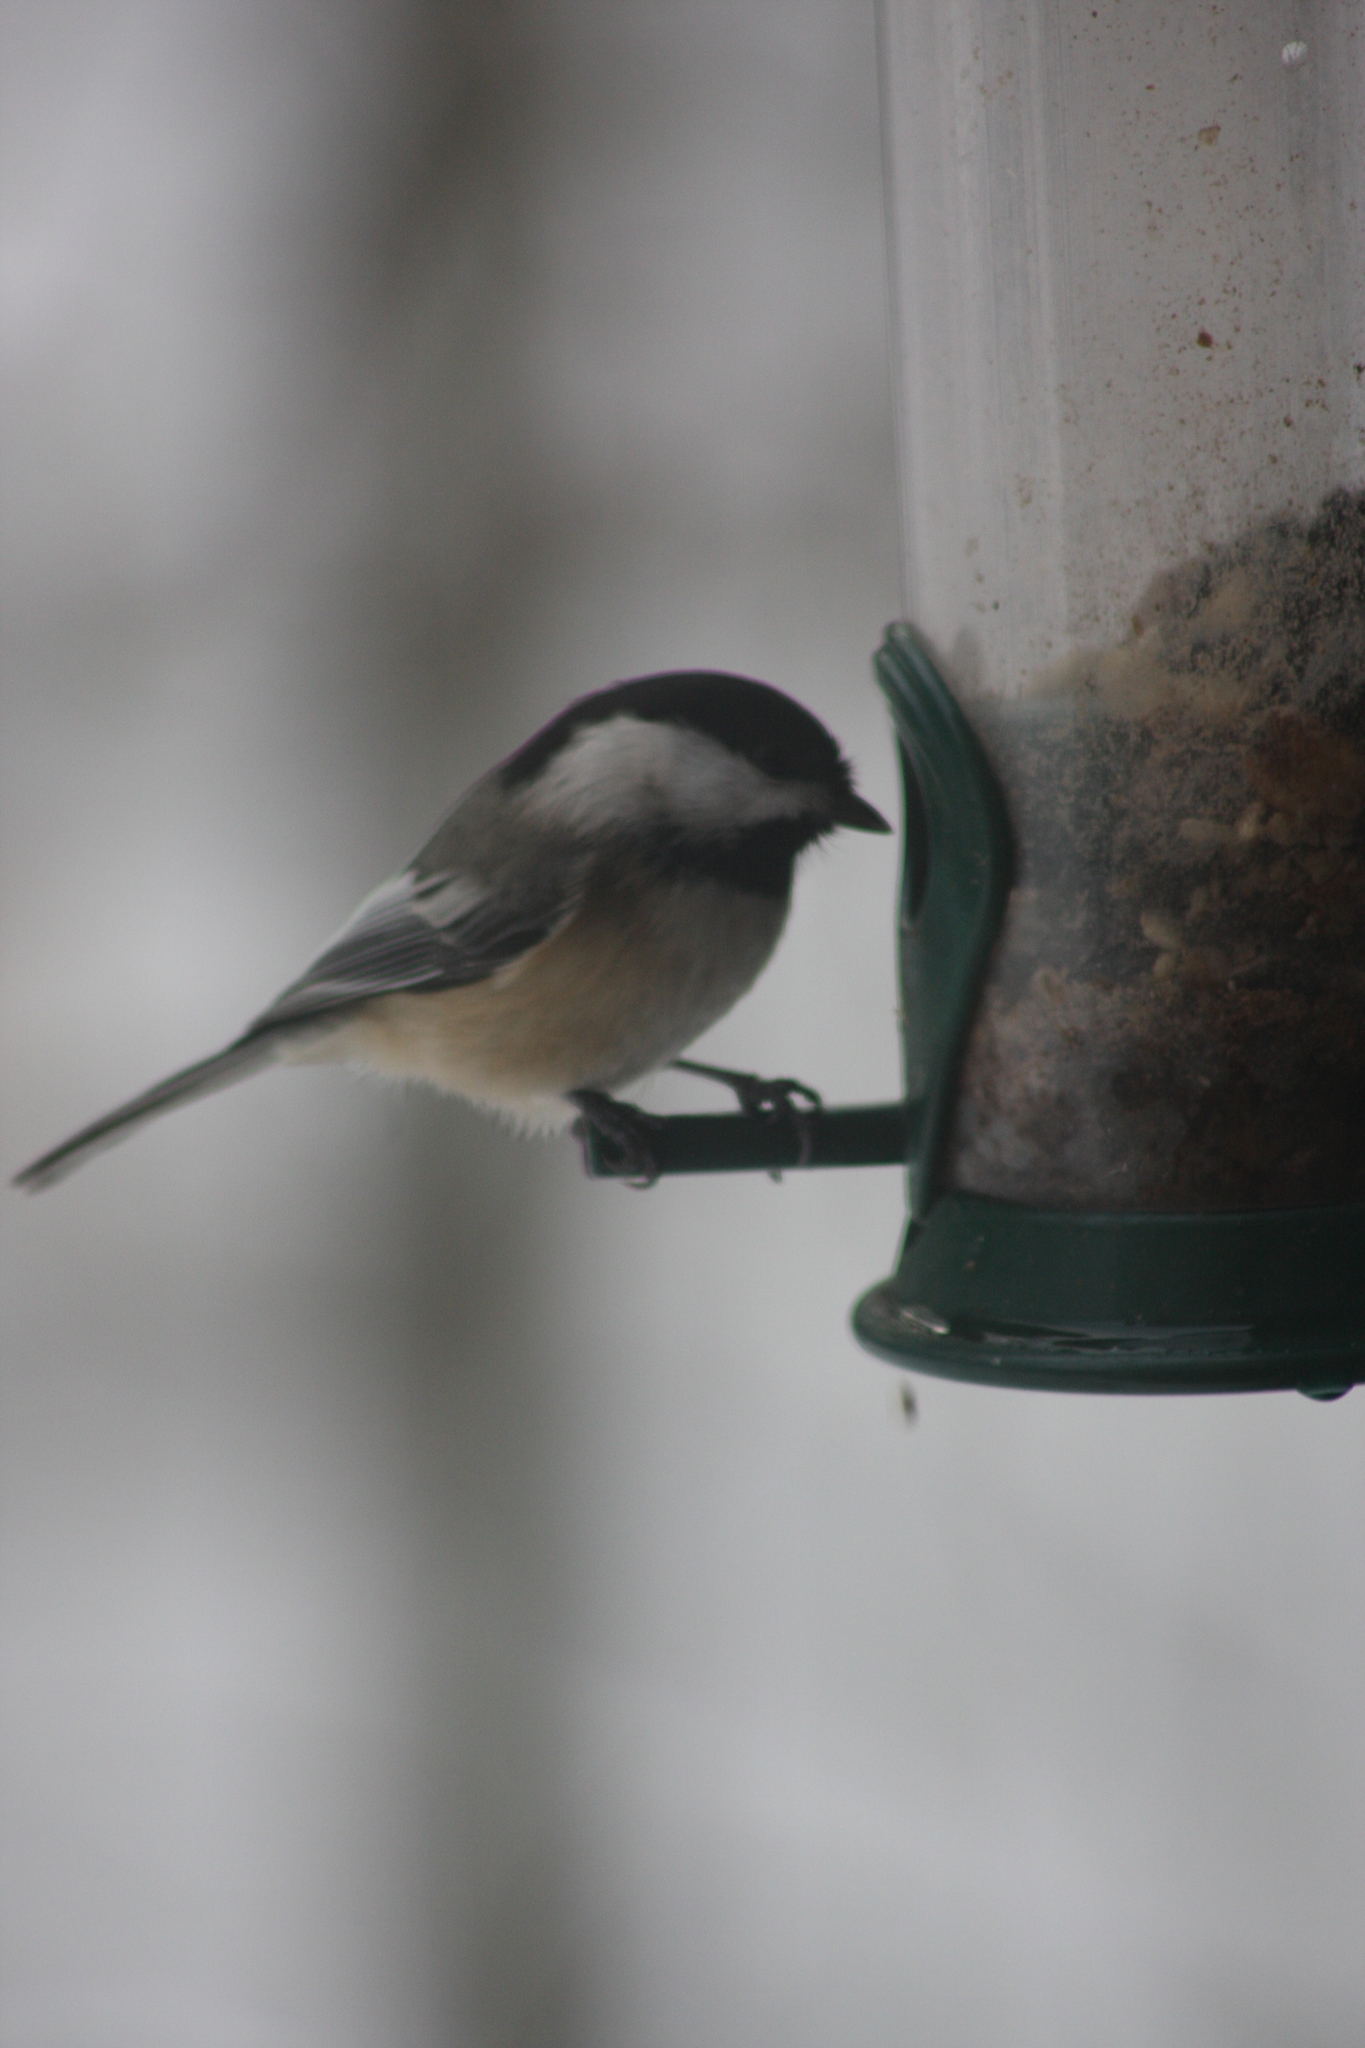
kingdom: Animalia
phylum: Chordata
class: Aves
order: Passeriformes
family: Paridae
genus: Poecile
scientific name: Poecile atricapillus
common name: Black-capped chickadee
